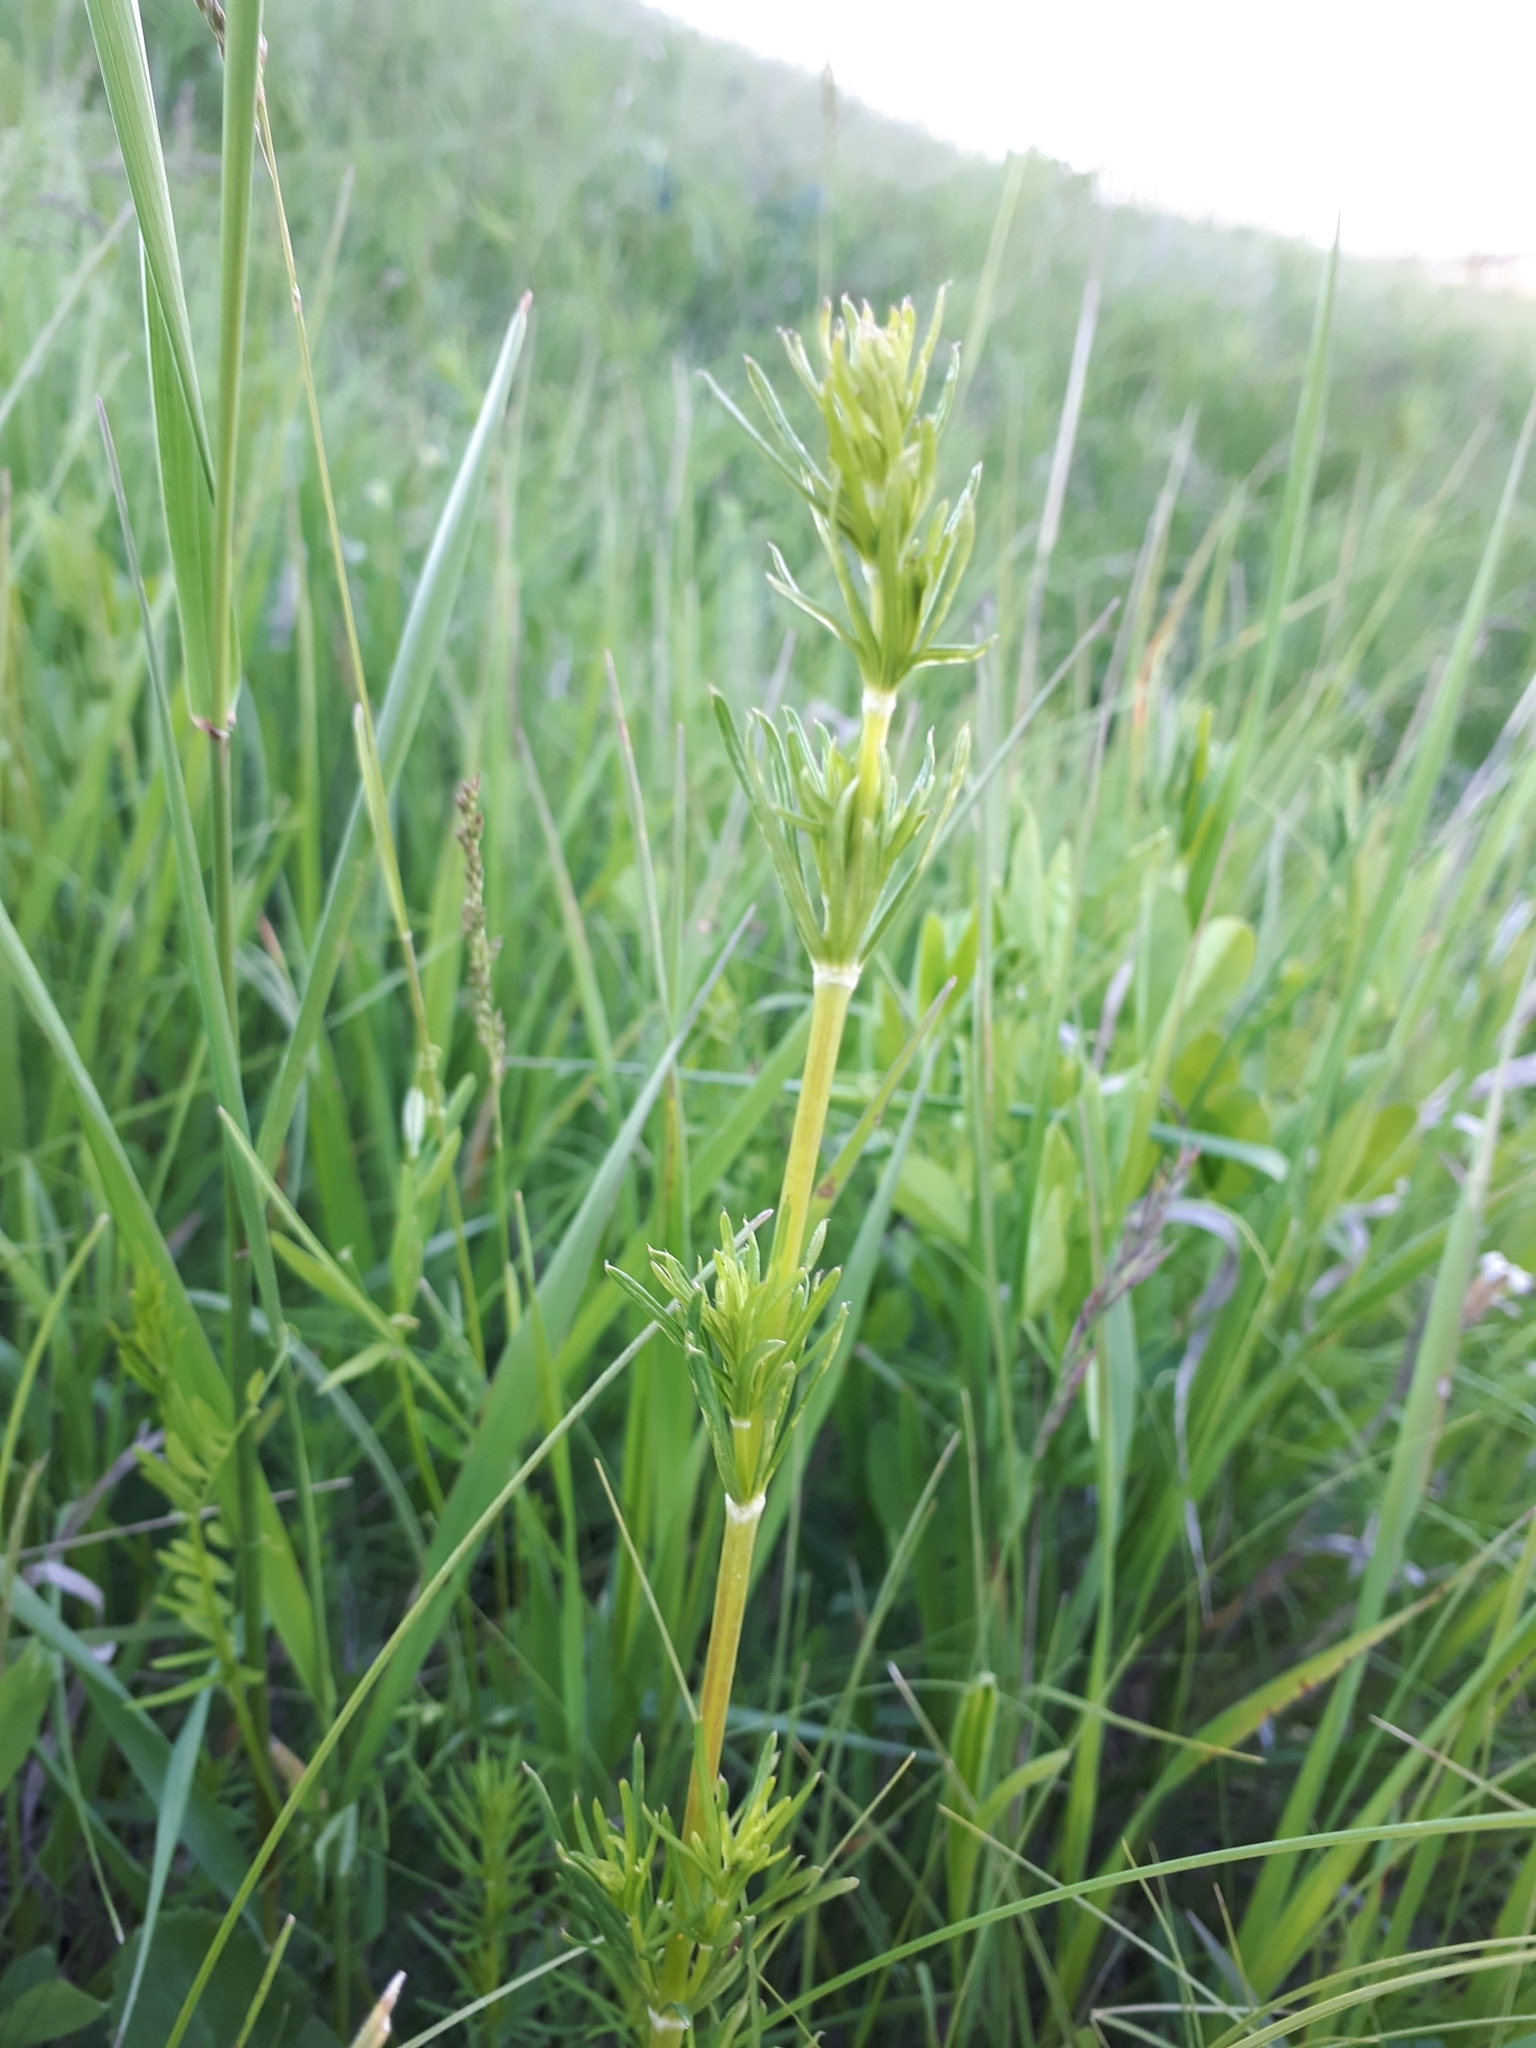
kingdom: Plantae
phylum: Tracheophyta
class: Magnoliopsida
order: Gentianales
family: Rubiaceae
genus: Galium
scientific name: Galium verum
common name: Lady's bedstraw
